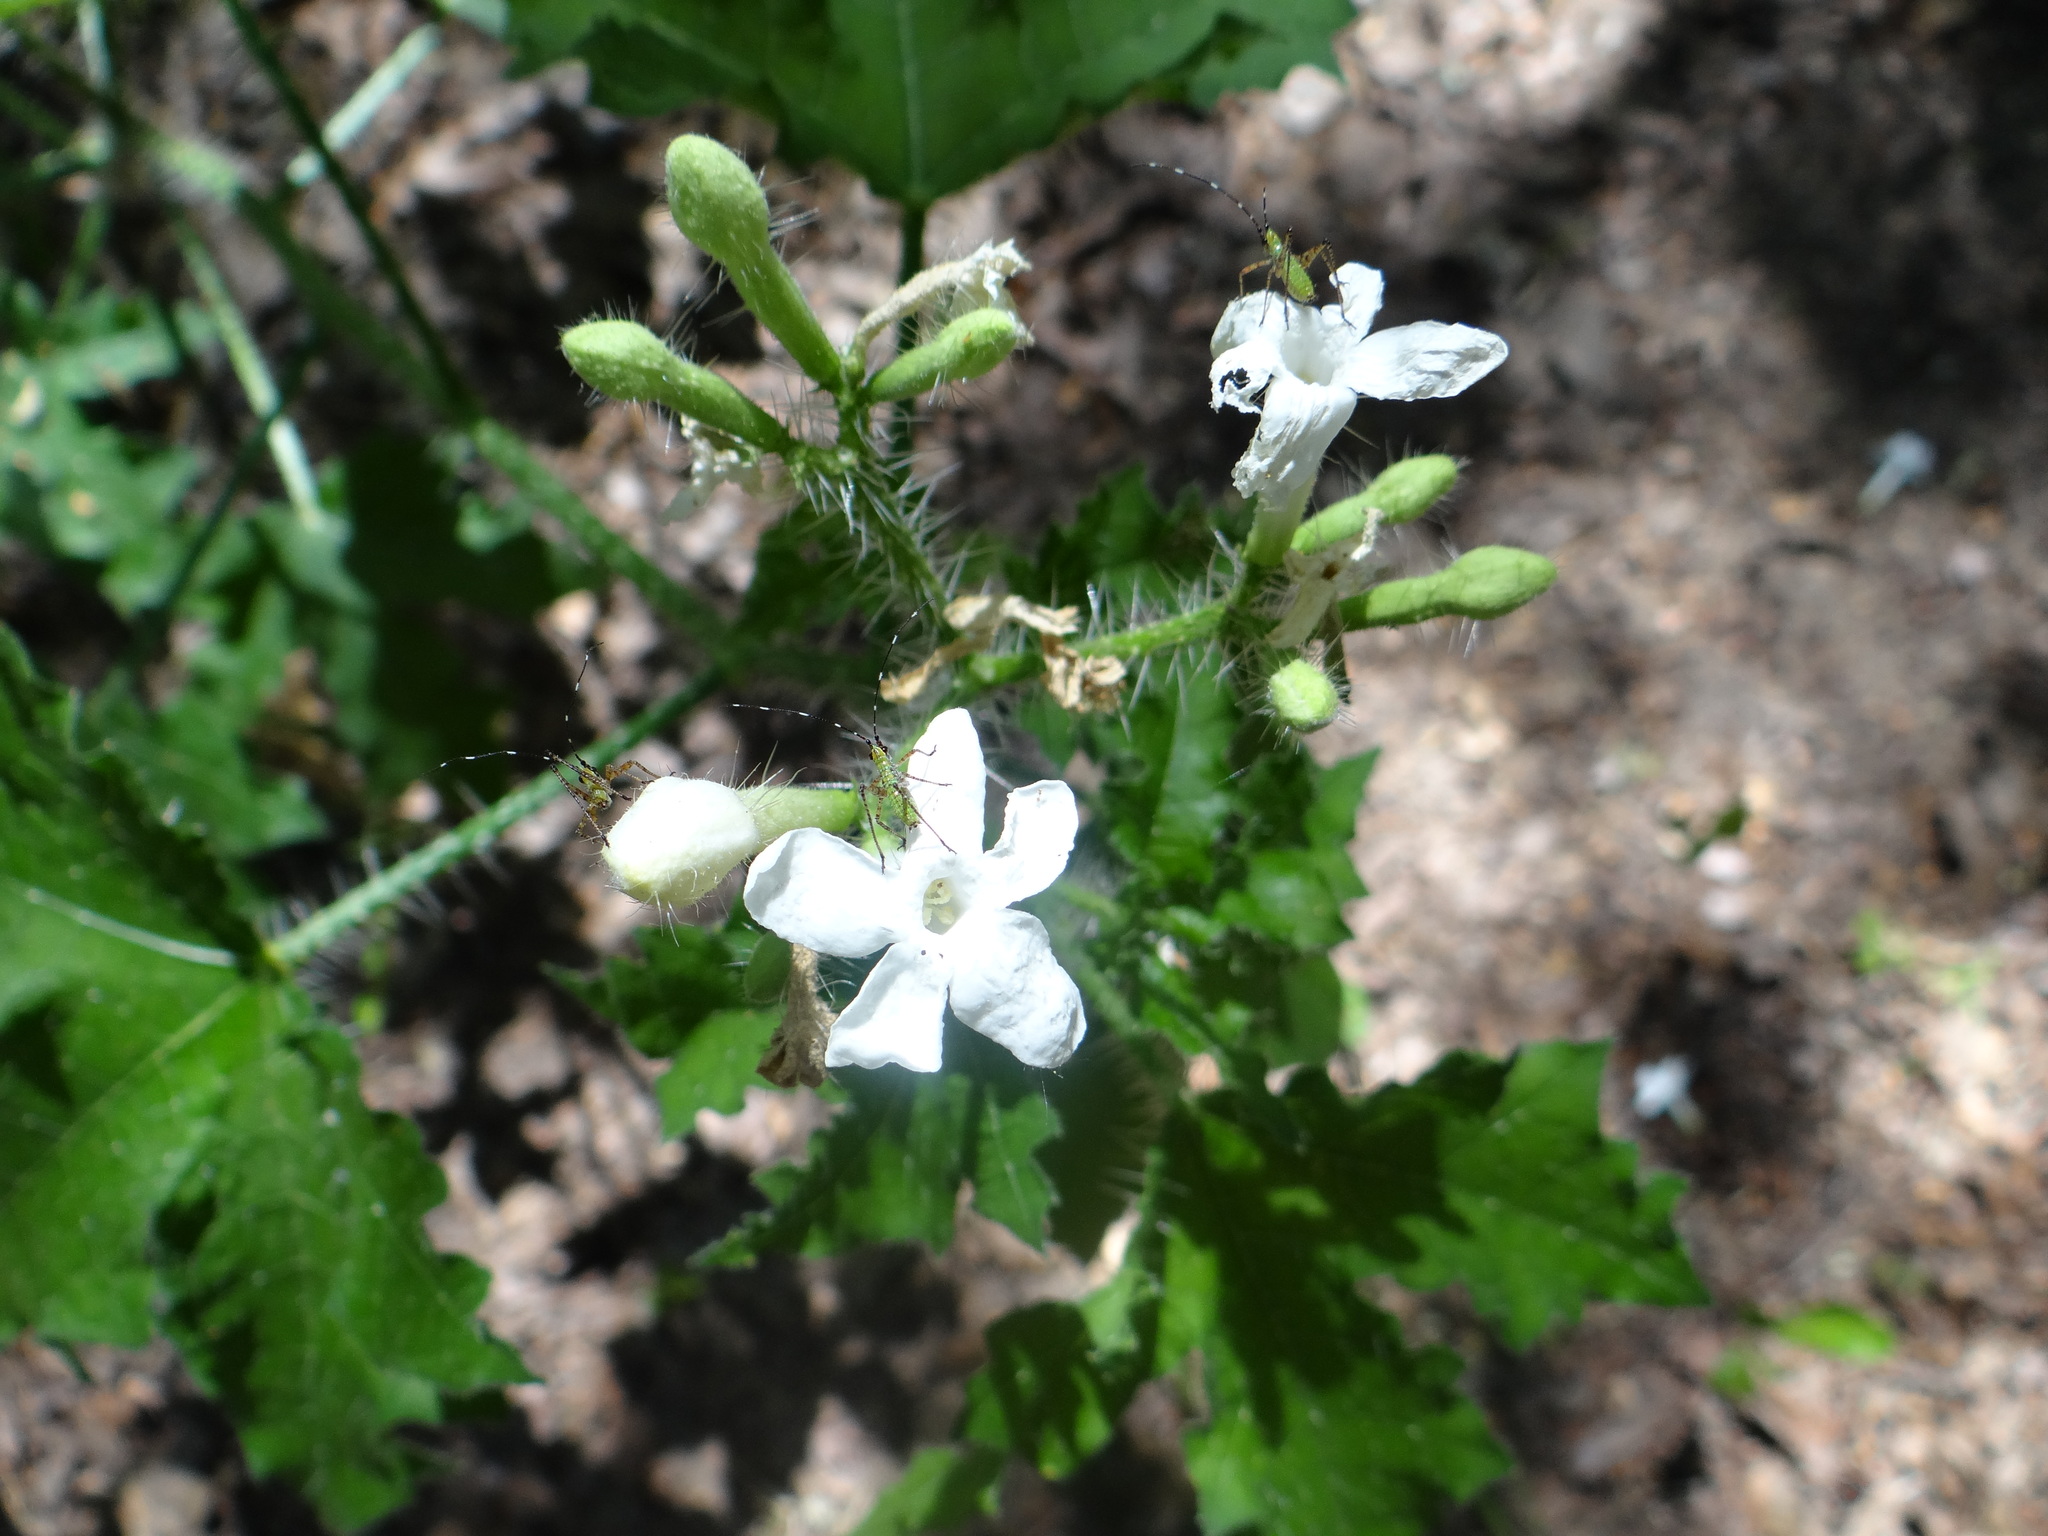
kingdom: Plantae
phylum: Tracheophyta
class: Magnoliopsida
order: Malpighiales
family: Euphorbiaceae
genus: Cnidoscolus
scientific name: Cnidoscolus texanus
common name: Texas bull-nettle
